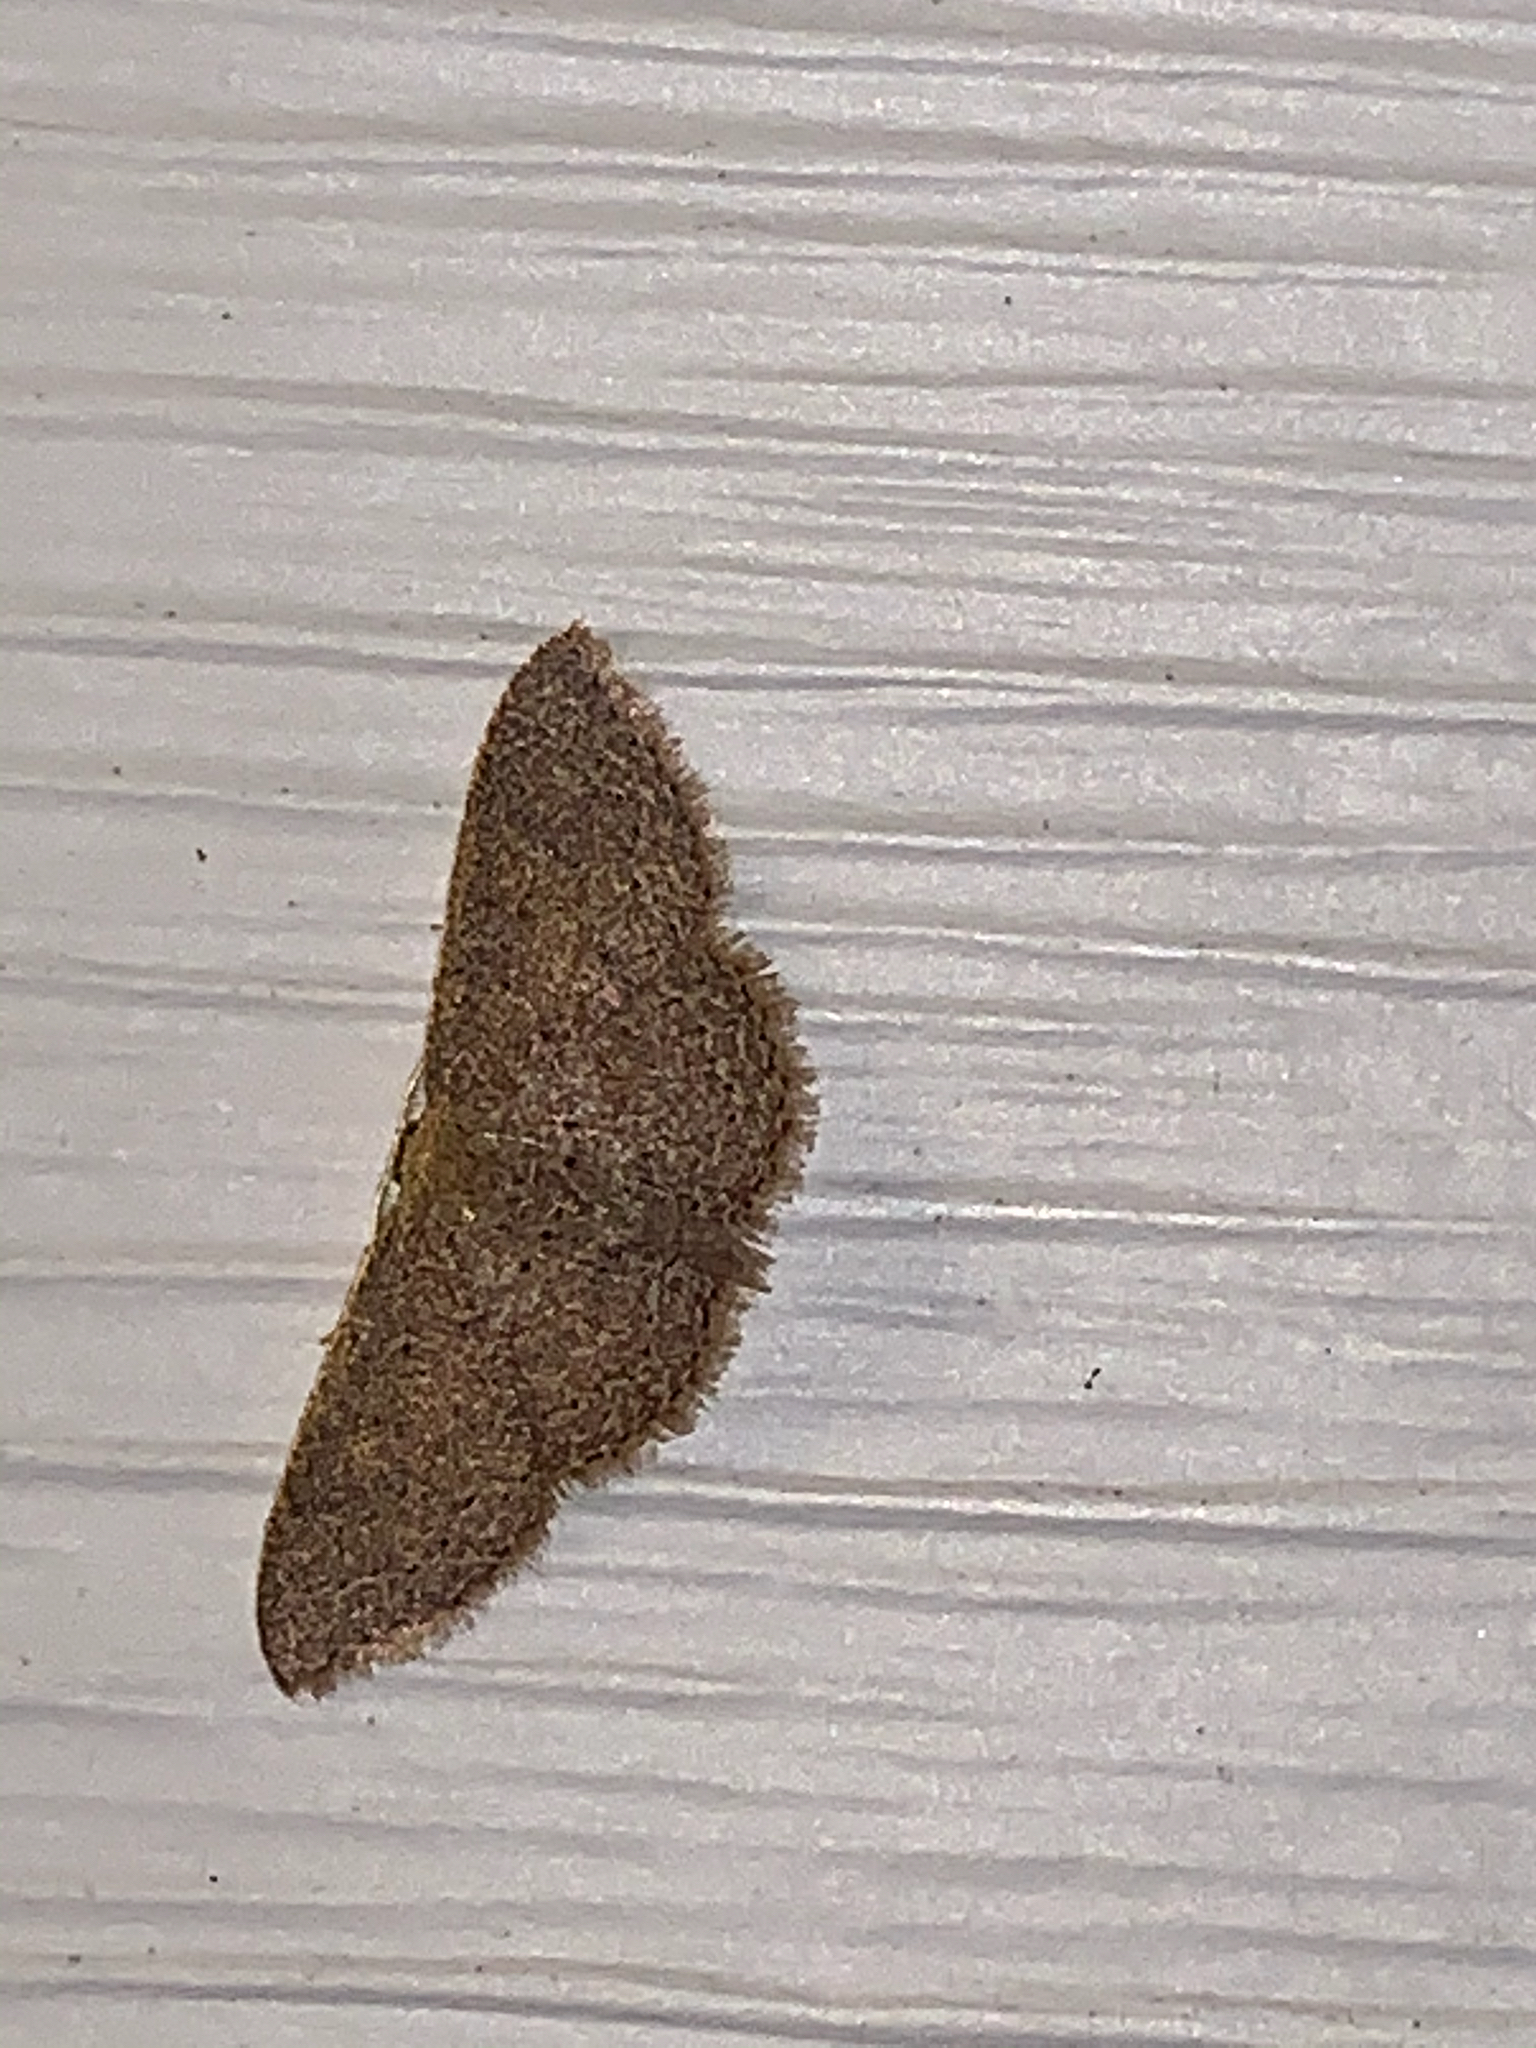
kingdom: Animalia
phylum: Arthropoda
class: Insecta
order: Lepidoptera
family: Geometridae
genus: Pleuroprucha
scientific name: Pleuroprucha insulsaria
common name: Common tan wave
